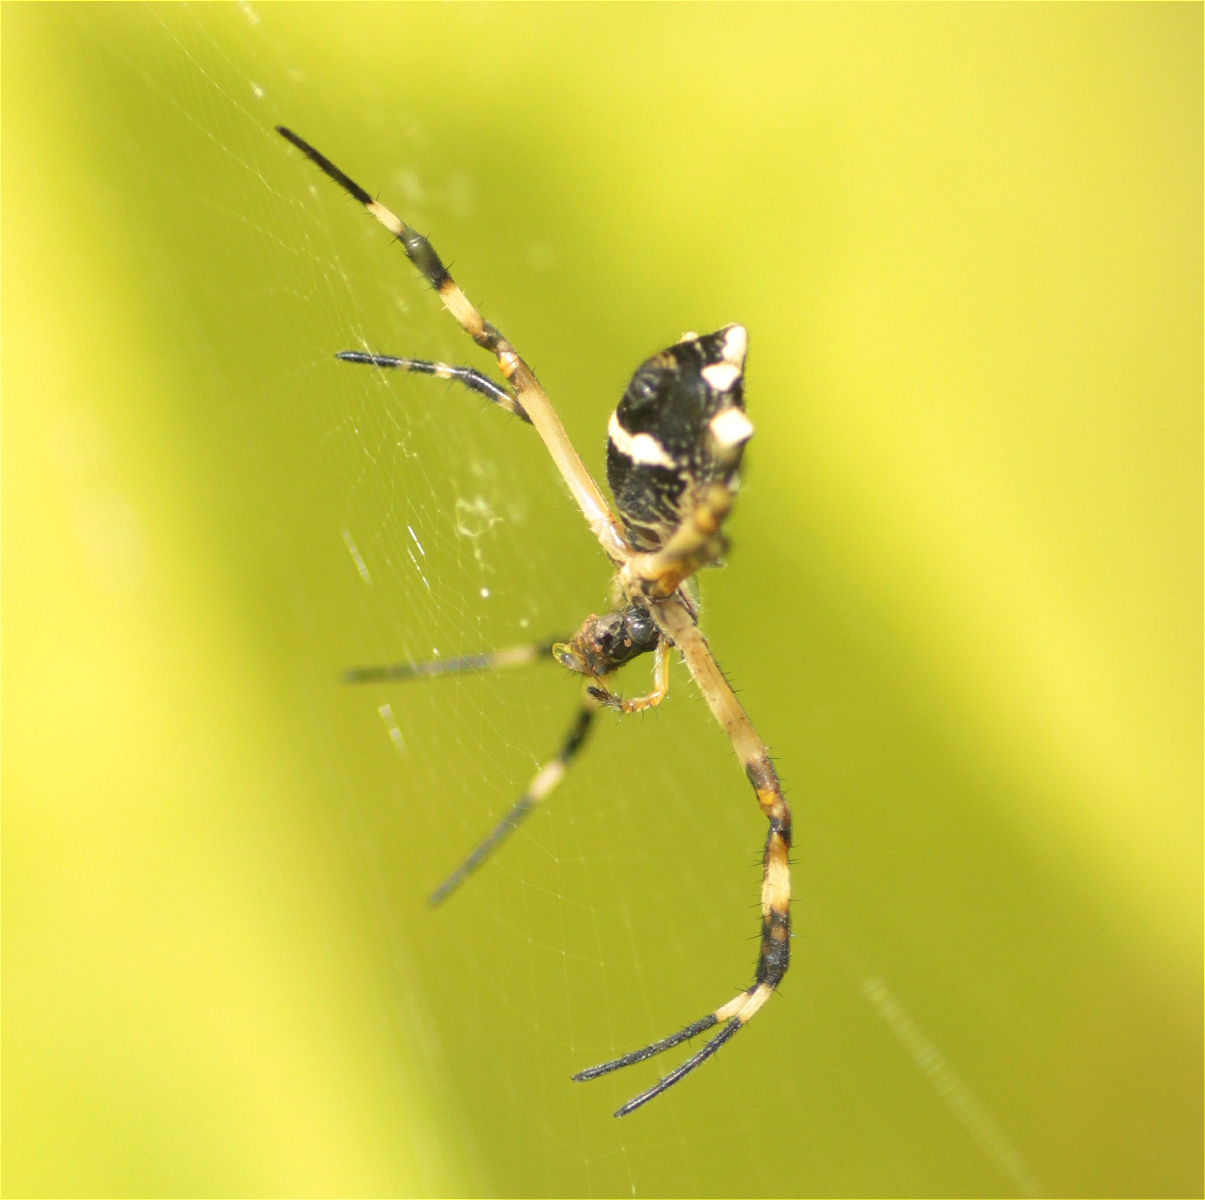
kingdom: Animalia
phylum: Arthropoda
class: Arachnida
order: Araneae
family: Araneidae
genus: Argiope
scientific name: Argiope argentata
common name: Orb weavers
